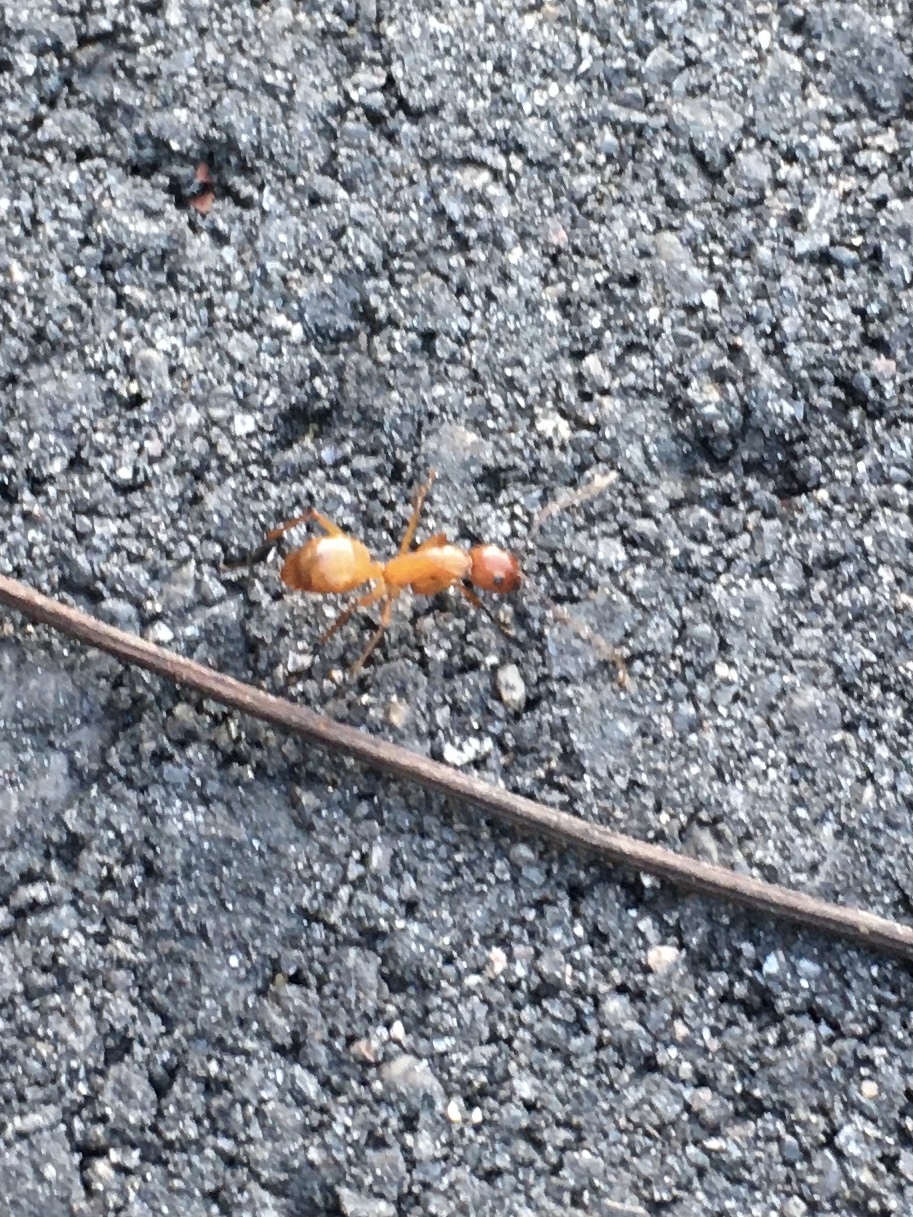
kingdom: Animalia
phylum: Arthropoda
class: Insecta
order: Hymenoptera
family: Formicidae
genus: Camponotus
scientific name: Camponotus castaneus
